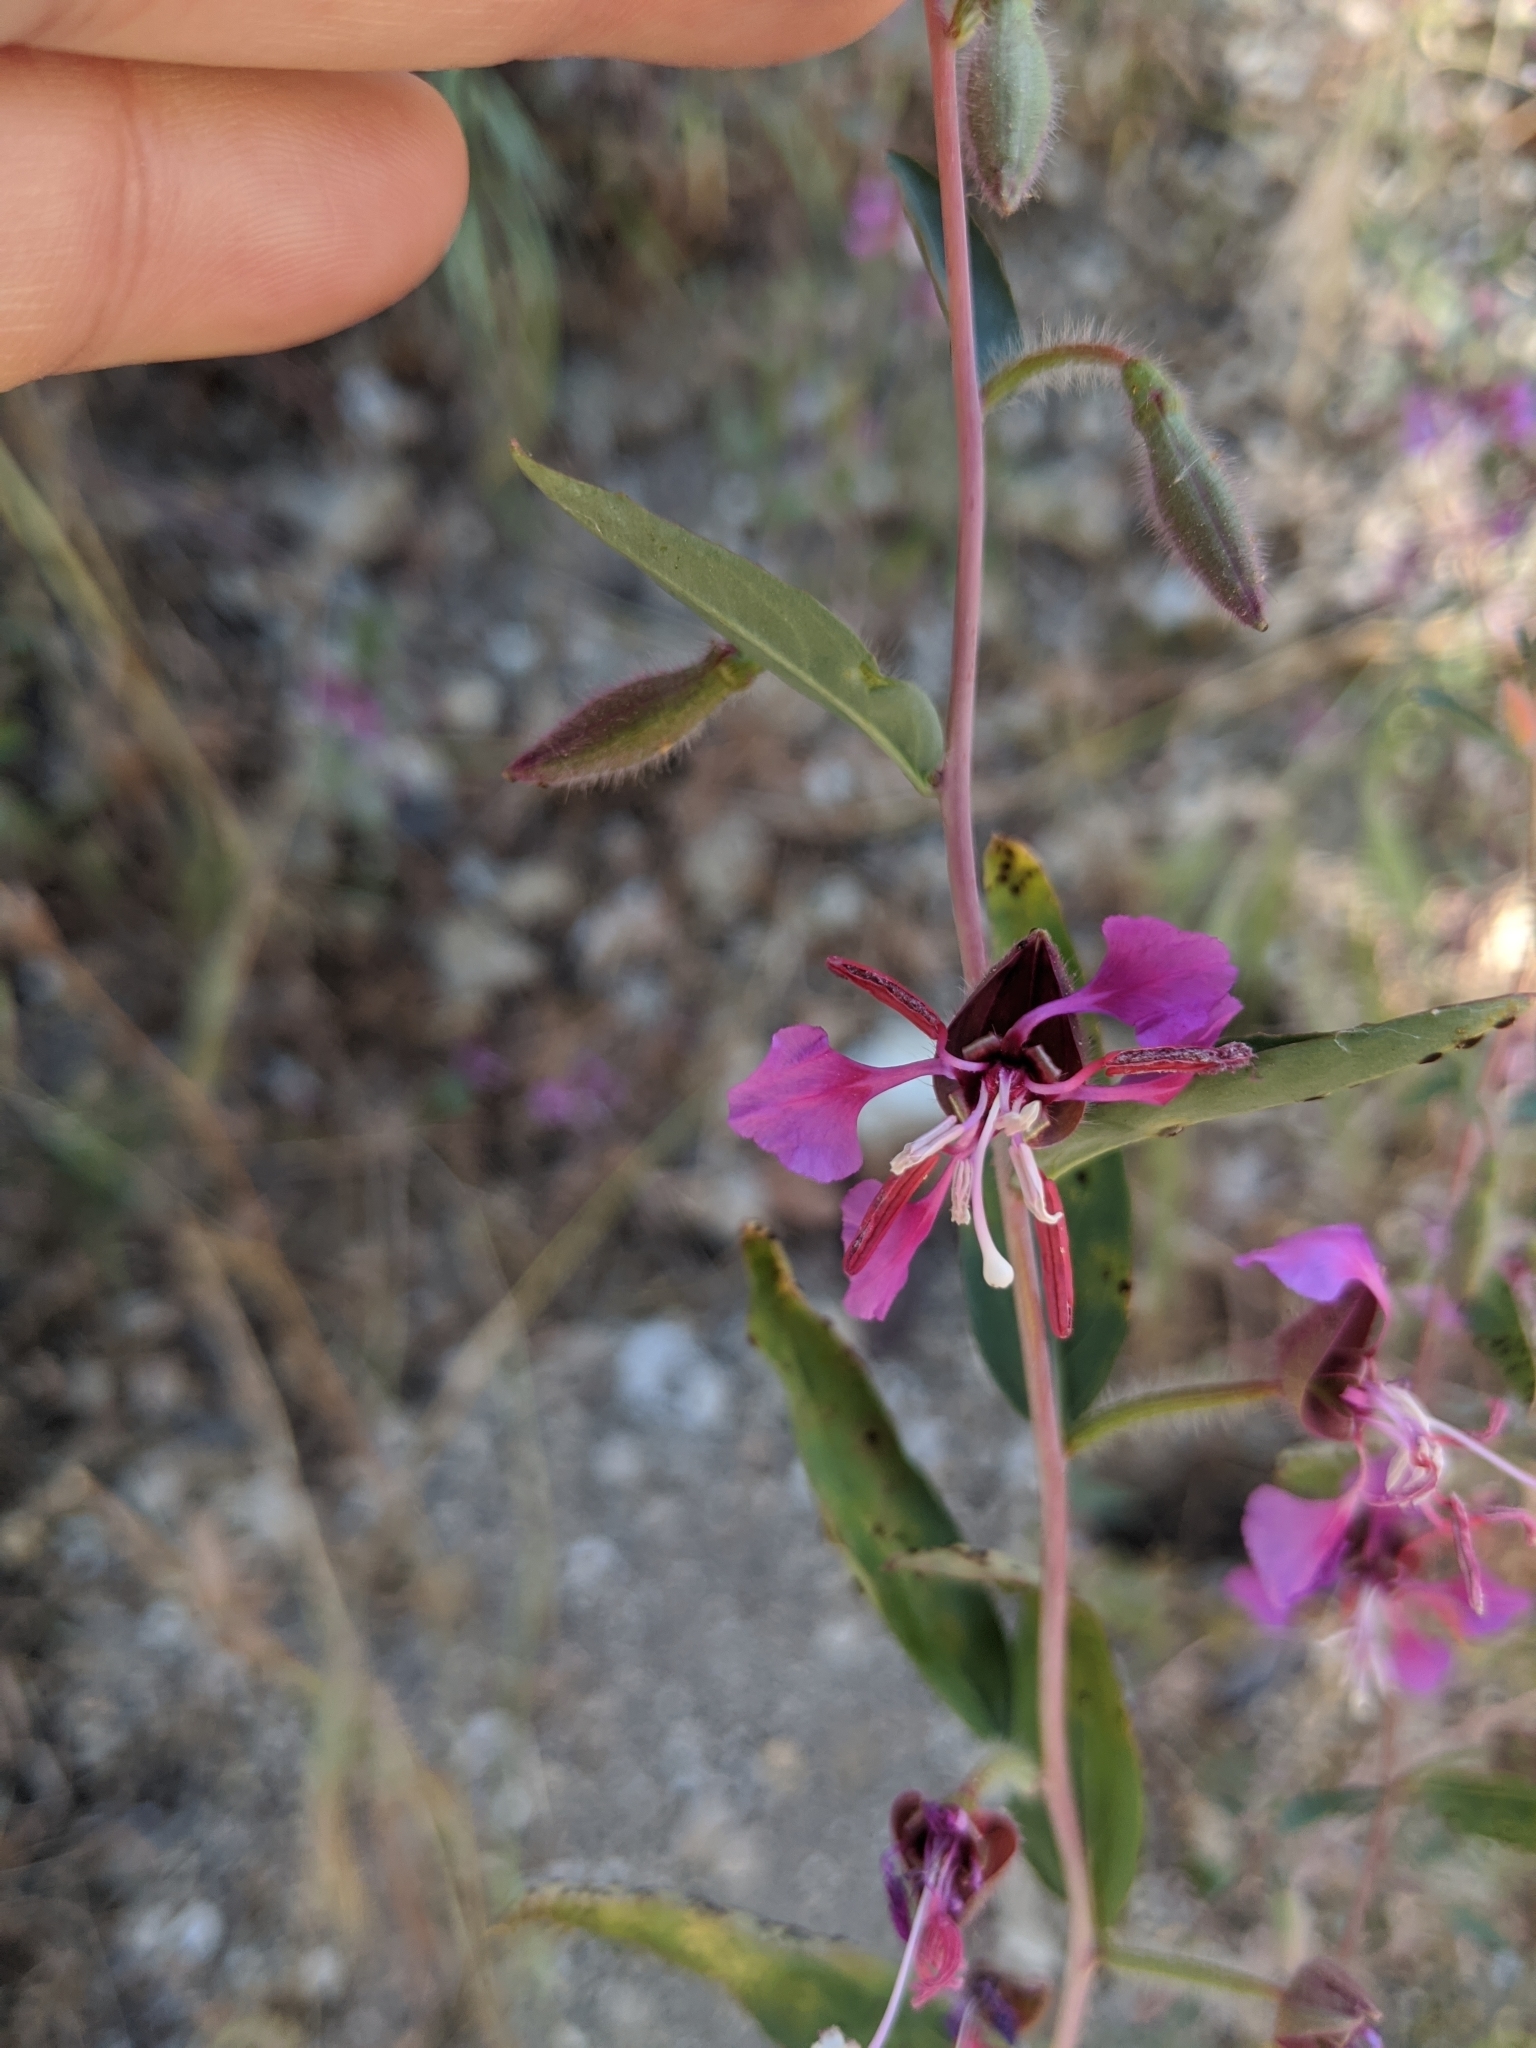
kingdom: Plantae
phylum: Tracheophyta
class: Magnoliopsida
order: Myrtales
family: Onagraceae
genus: Clarkia
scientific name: Clarkia unguiculata
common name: Clarkia
